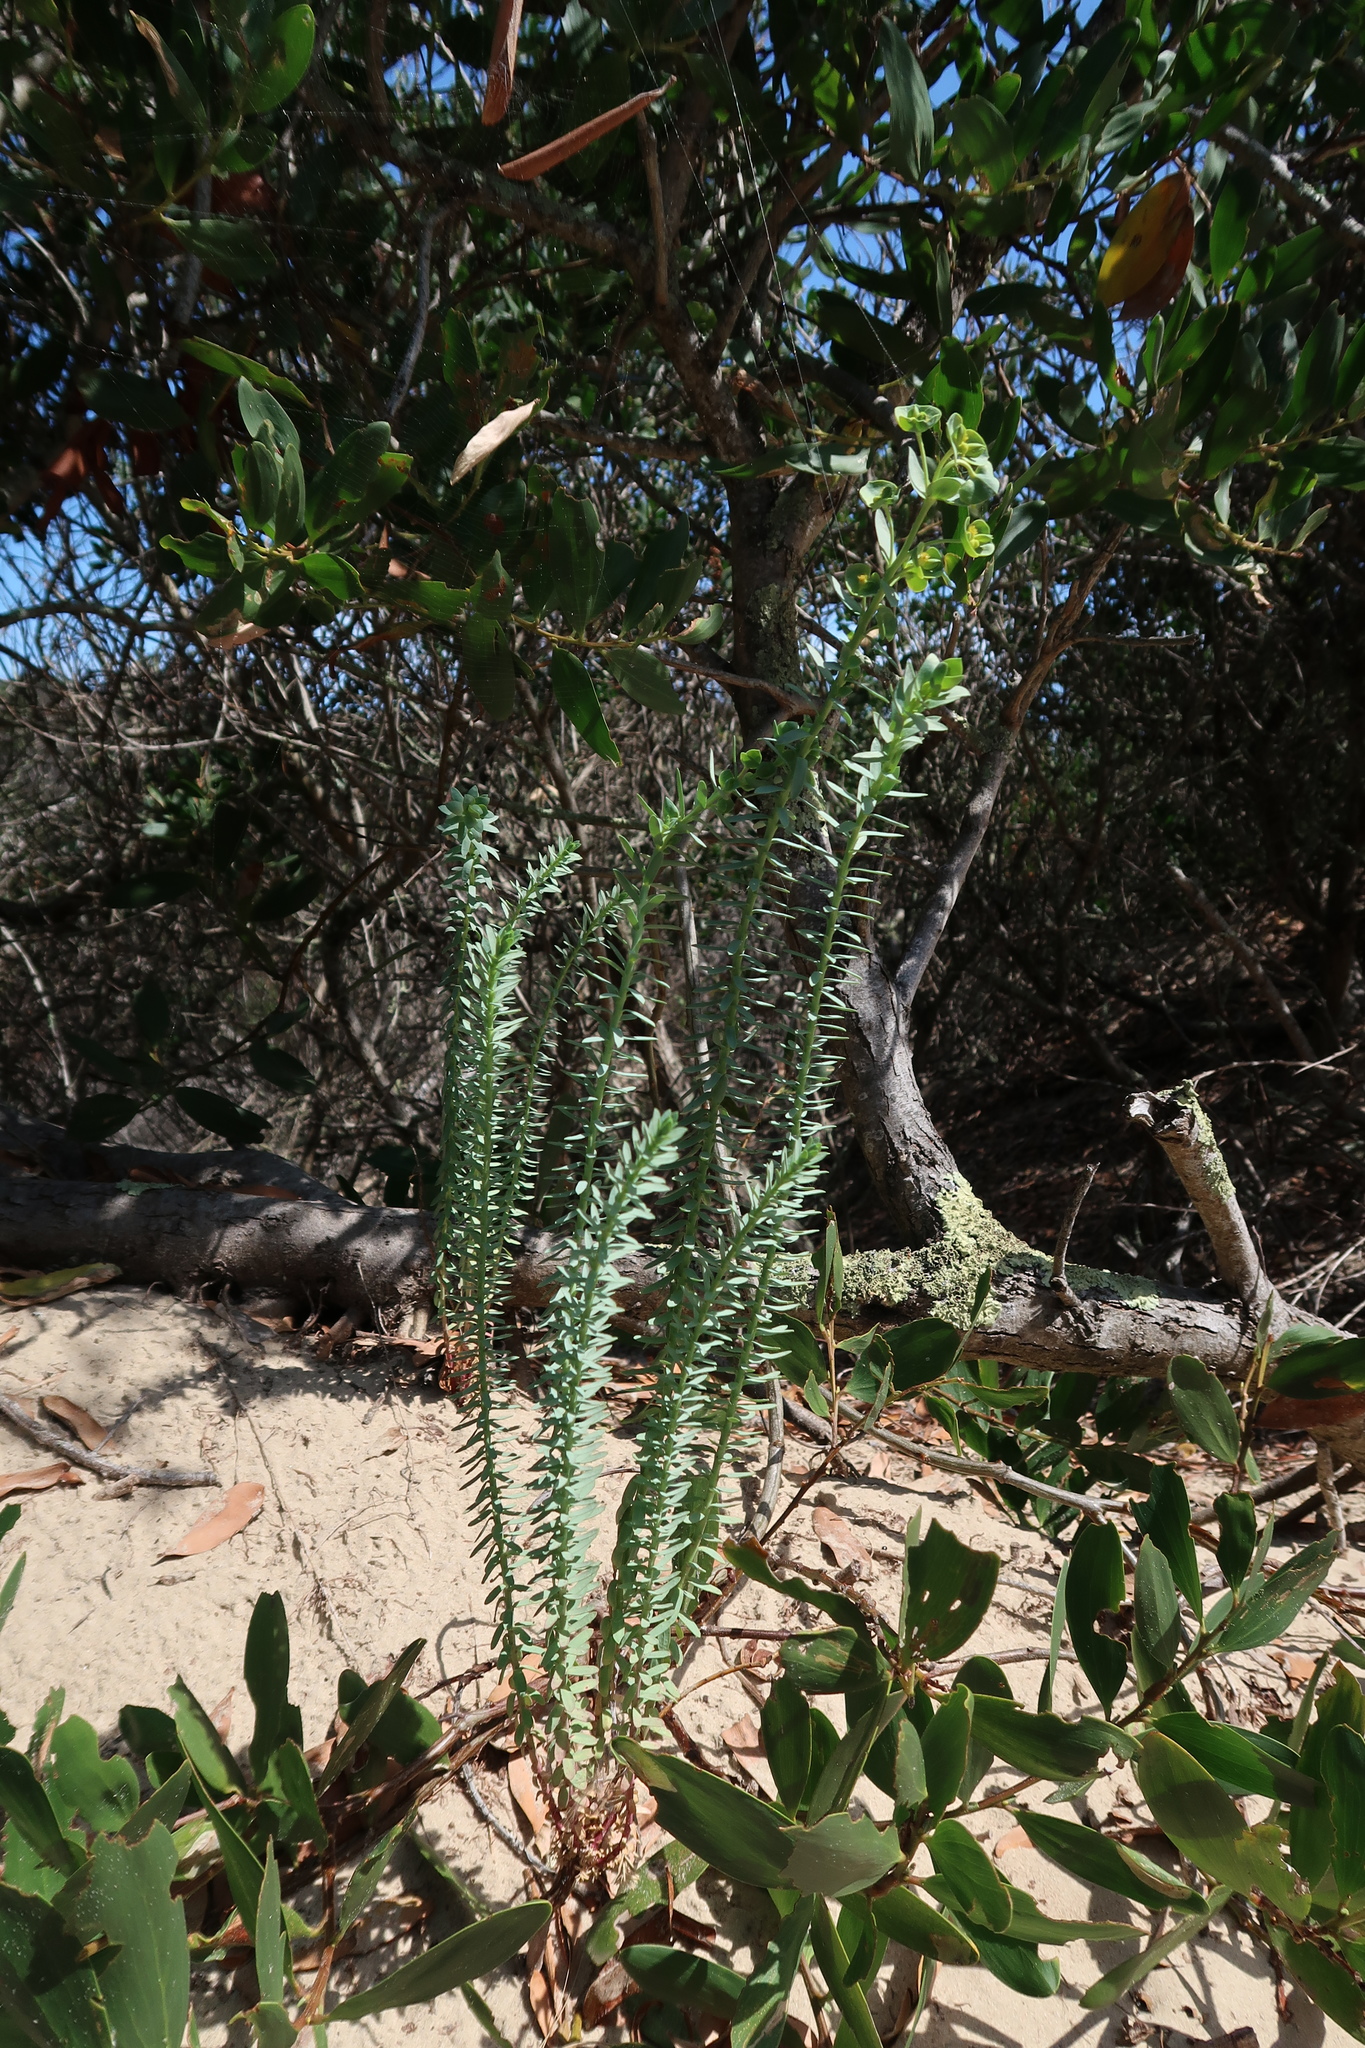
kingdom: Plantae
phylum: Tracheophyta
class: Magnoliopsida
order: Malpighiales
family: Euphorbiaceae
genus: Euphorbia
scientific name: Euphorbia paralias
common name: Sea spurge
